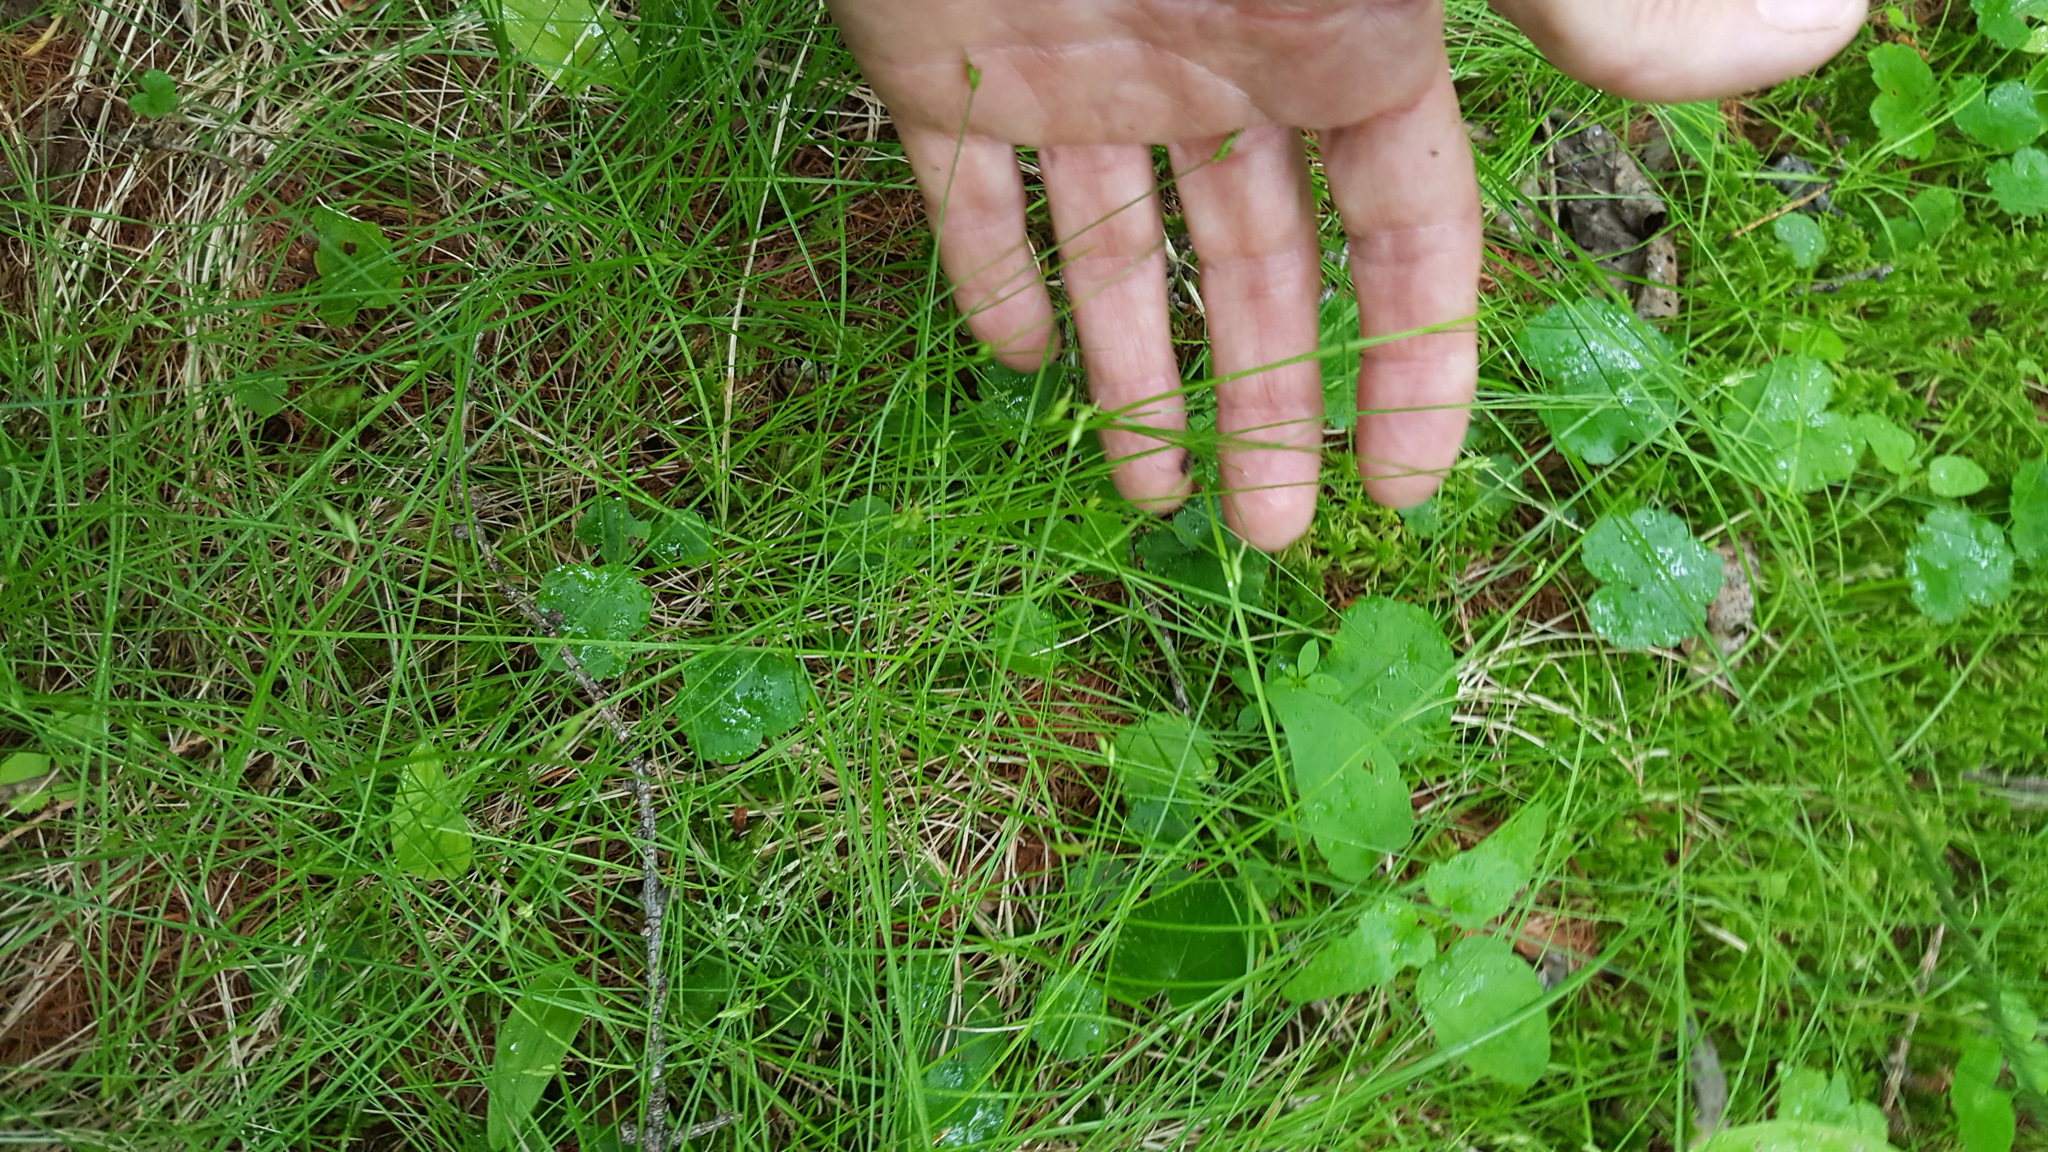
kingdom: Plantae
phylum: Tracheophyta
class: Liliopsida
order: Poales
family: Cyperaceae
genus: Carex
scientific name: Carex leptalea
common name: Bristly-stalked sedge
